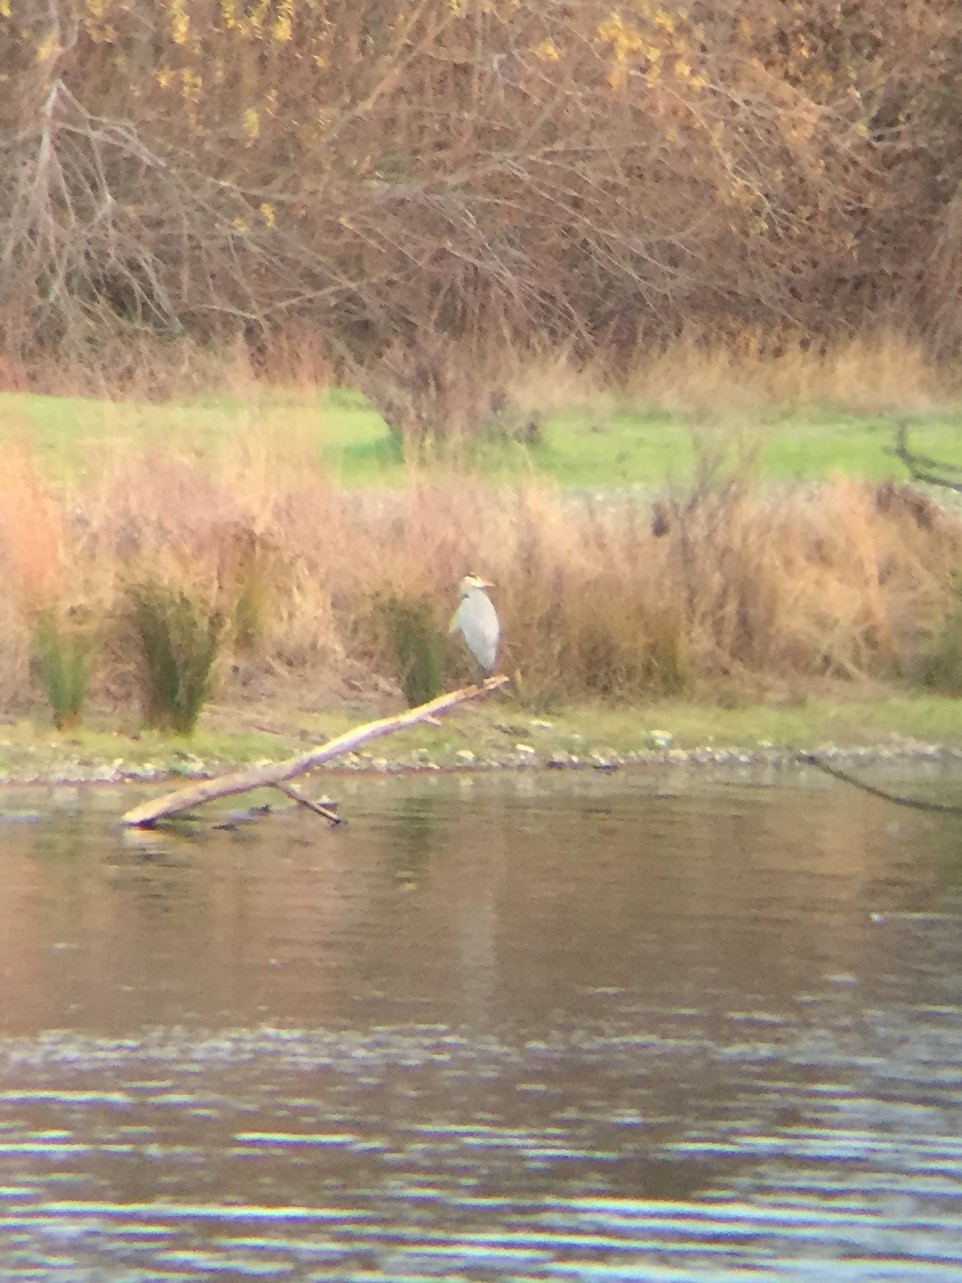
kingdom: Animalia
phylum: Chordata
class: Aves
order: Pelecaniformes
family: Ardeidae
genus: Ardea
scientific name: Ardea herodias
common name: Great blue heron
